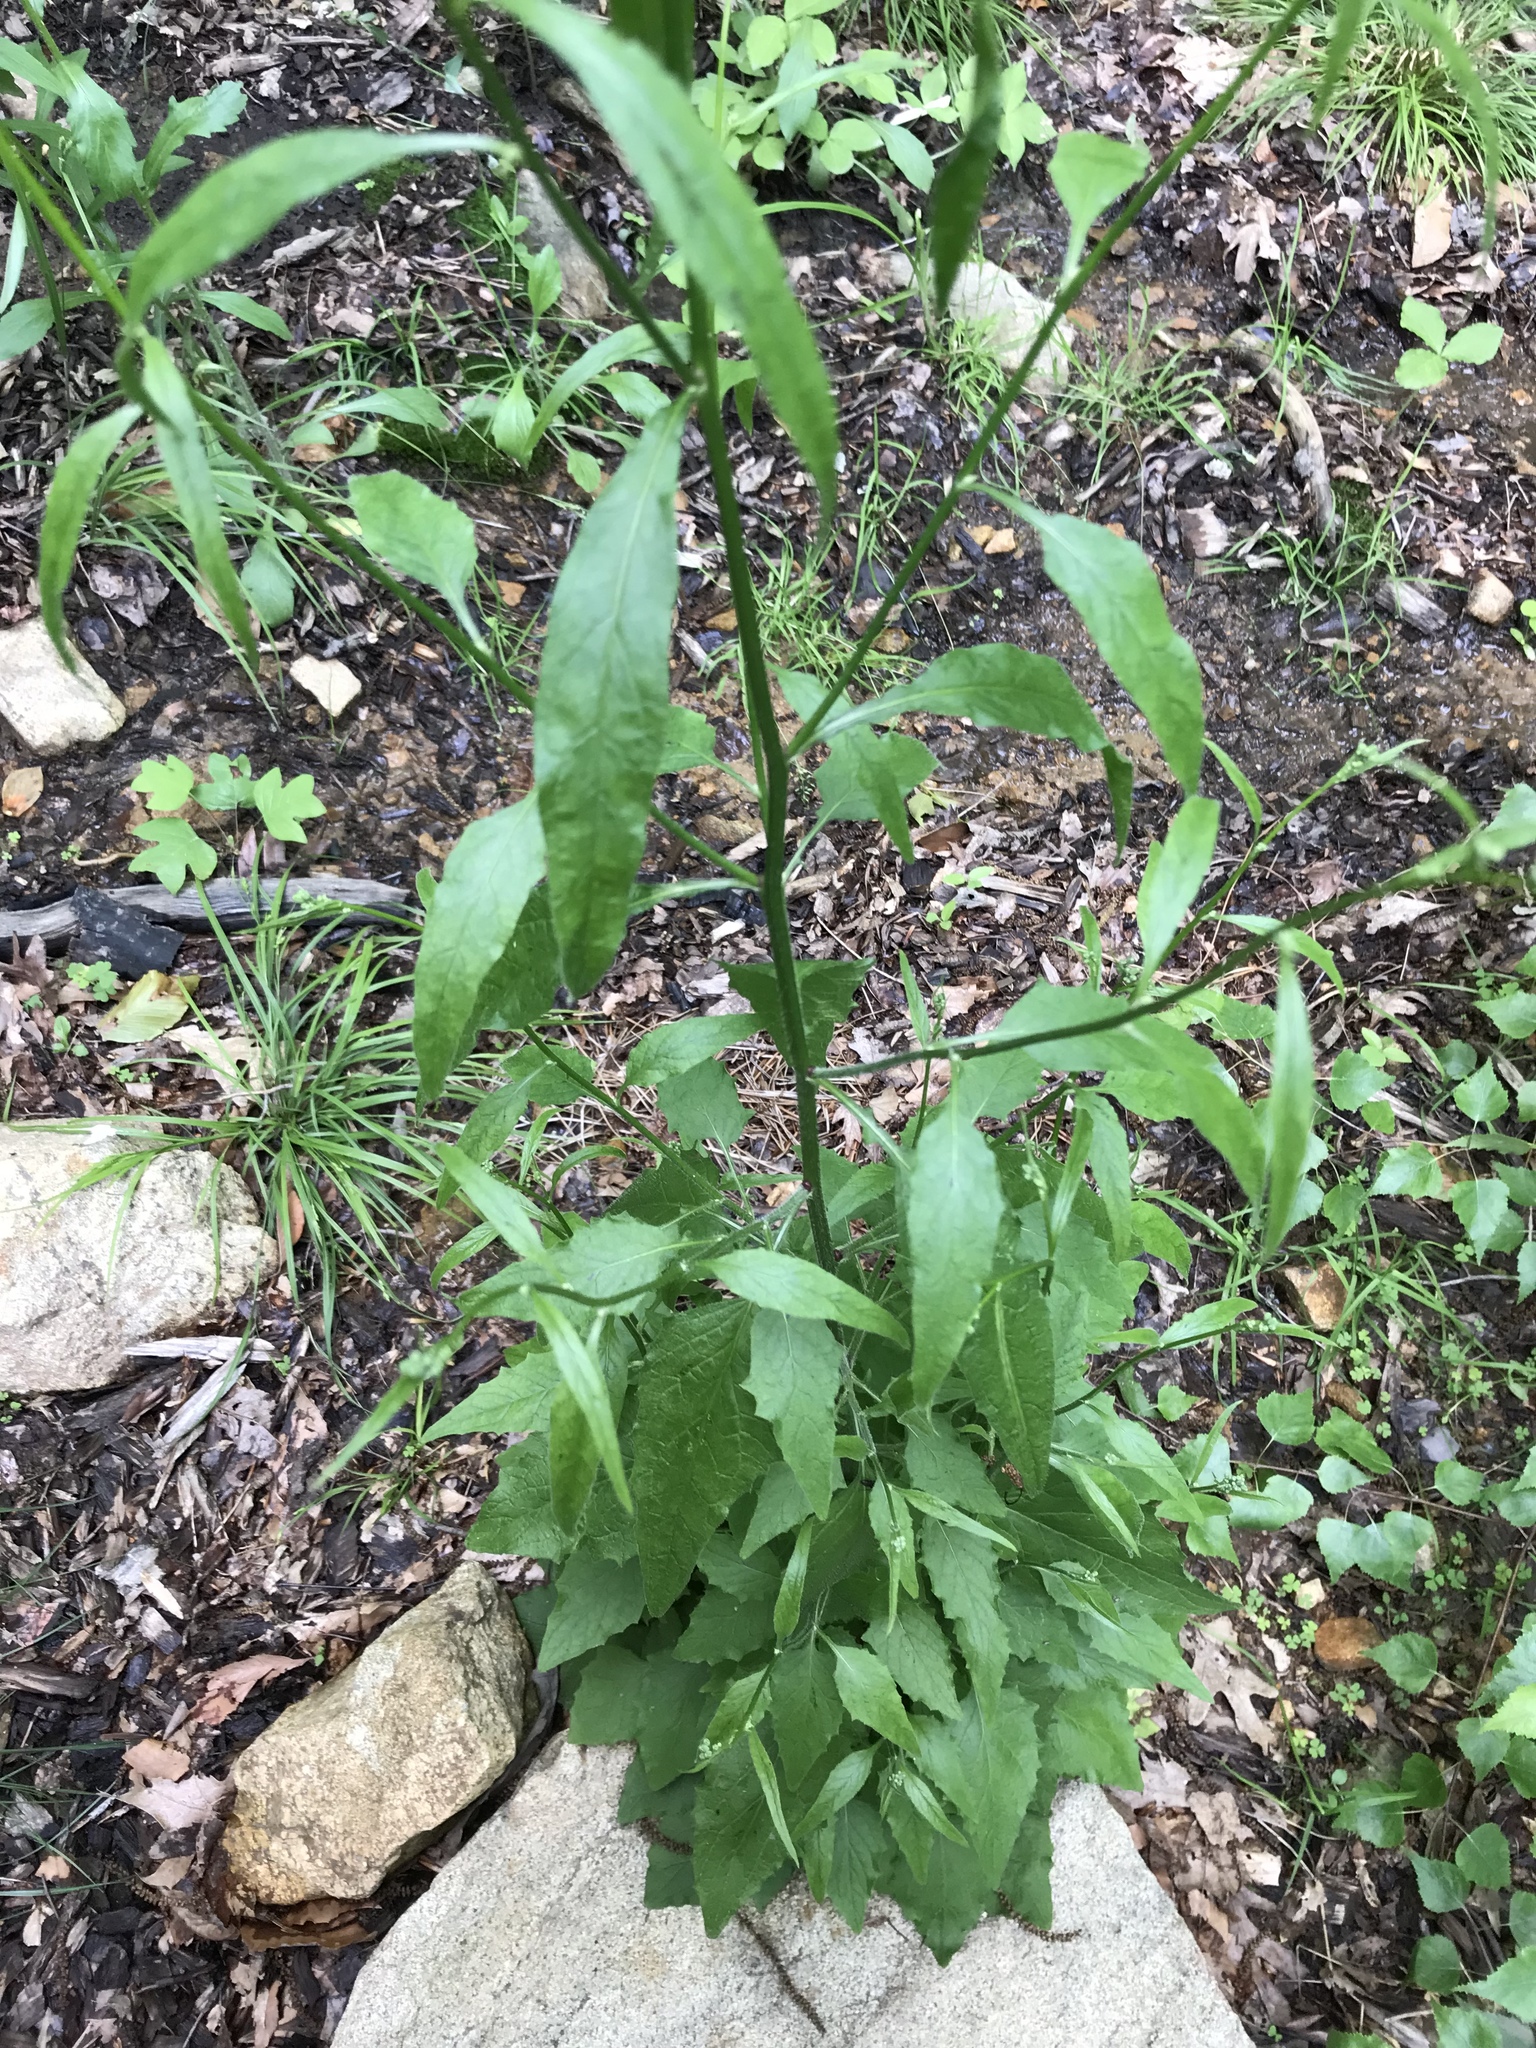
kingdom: Plantae
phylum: Tracheophyta
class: Magnoliopsida
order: Asterales
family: Asteraceae
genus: Lapsana
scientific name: Lapsana communis
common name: Nipplewort
